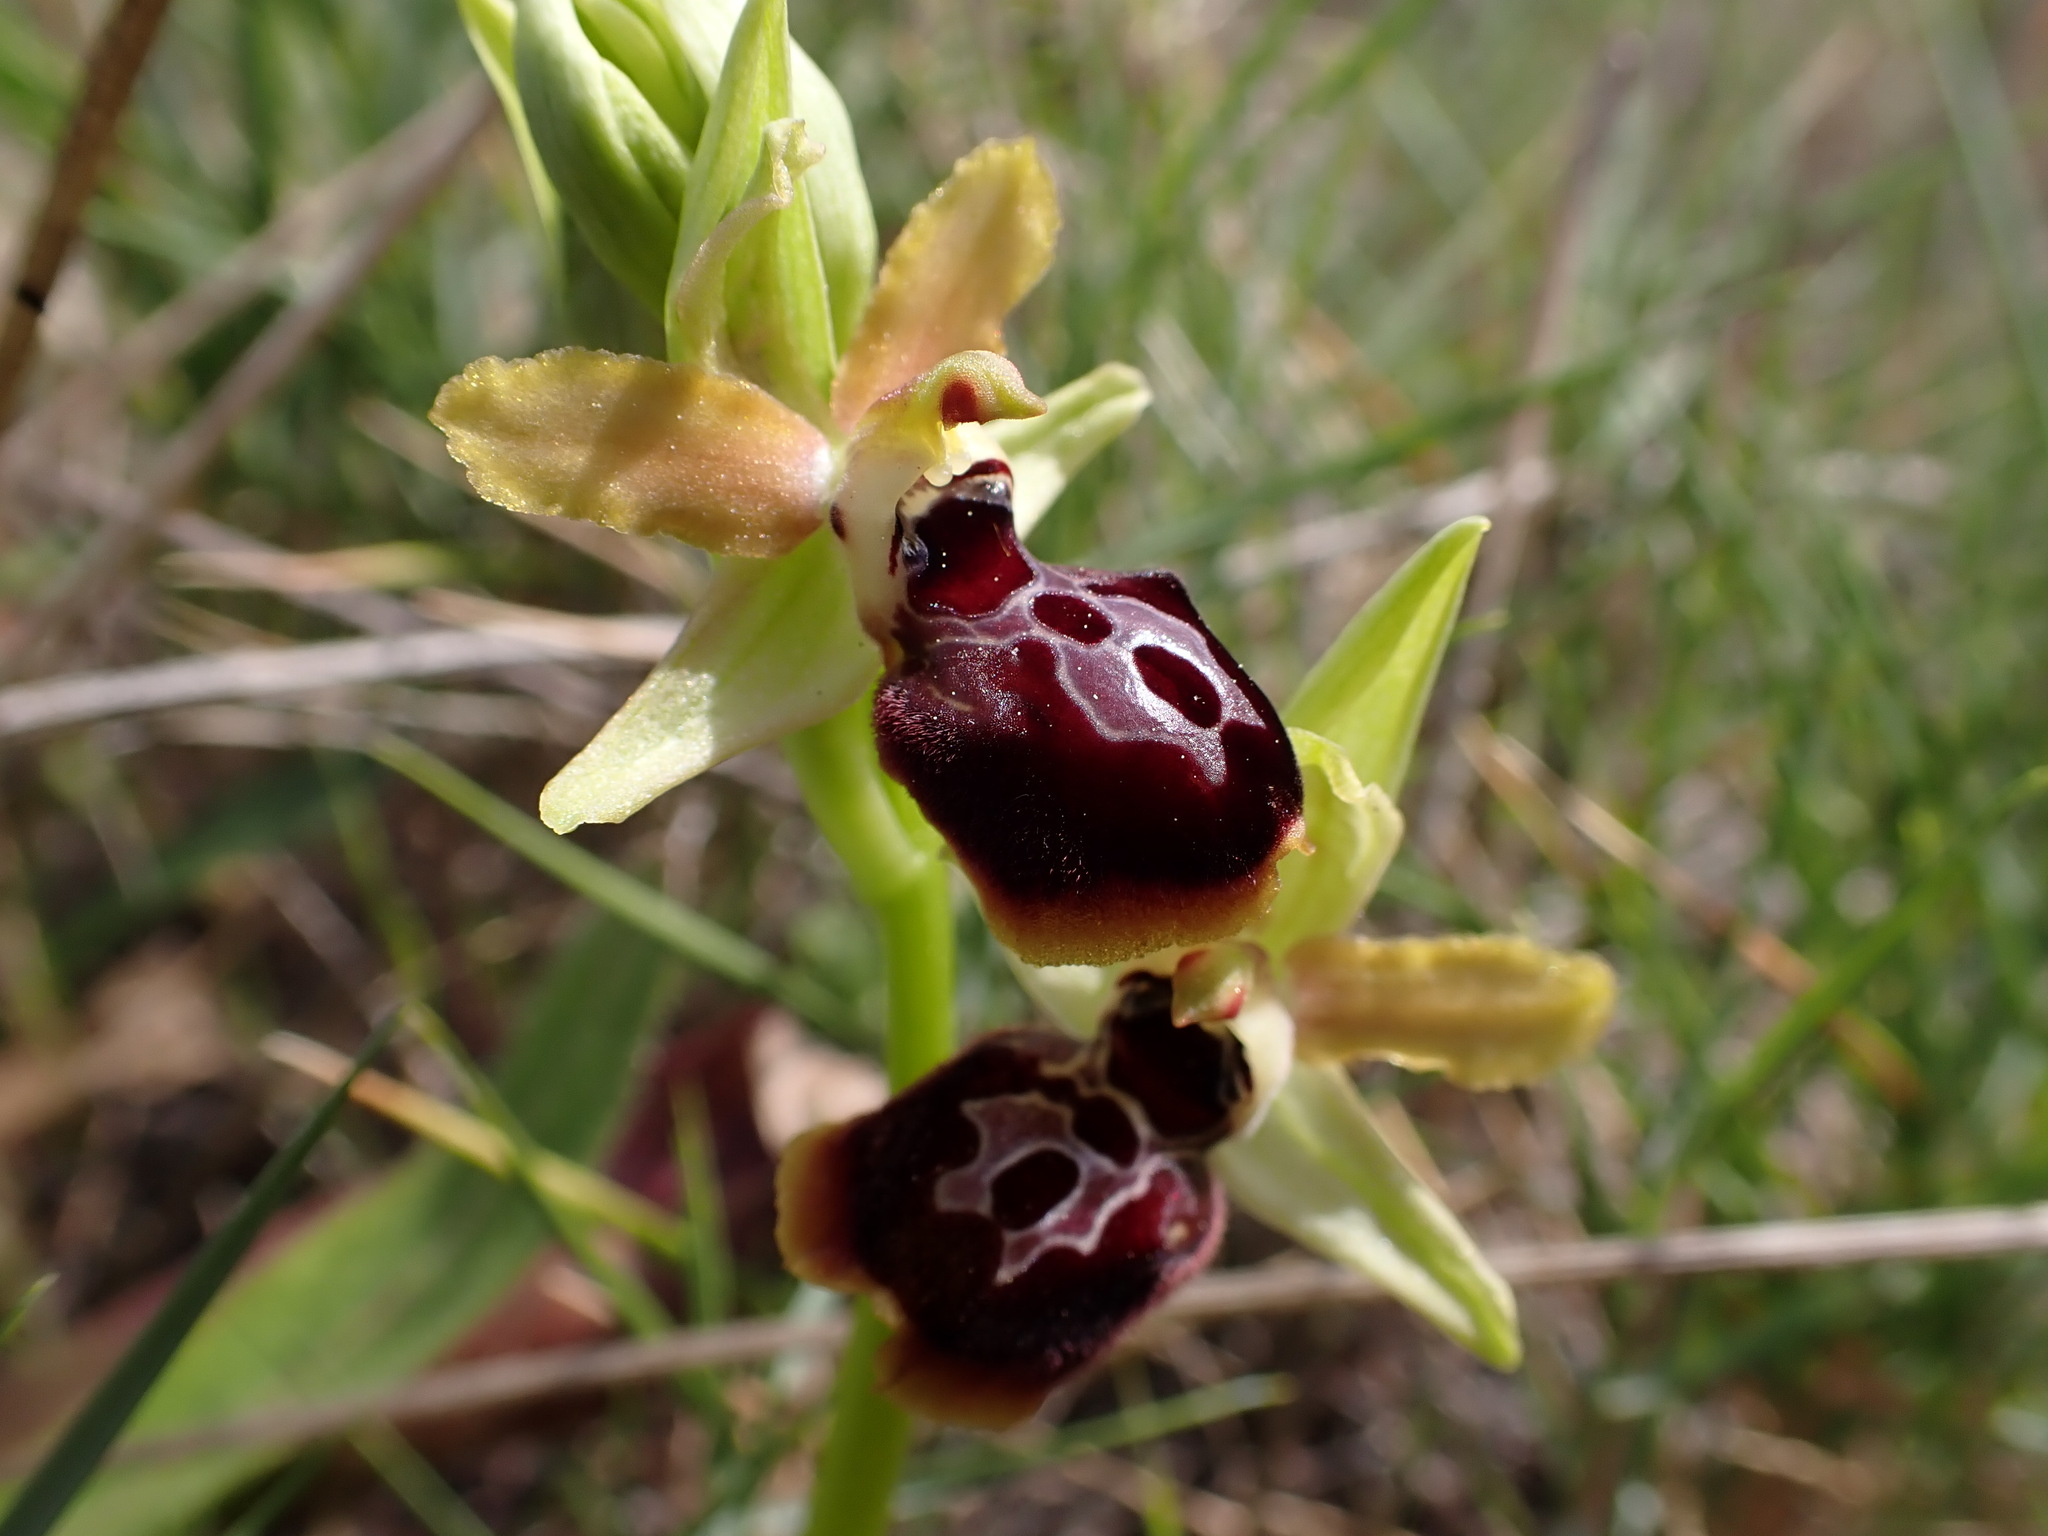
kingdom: Plantae
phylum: Tracheophyta
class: Liliopsida
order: Asparagales
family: Orchidaceae
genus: Ophrys
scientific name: Ophrys sphegodes
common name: Early spider-orchid
